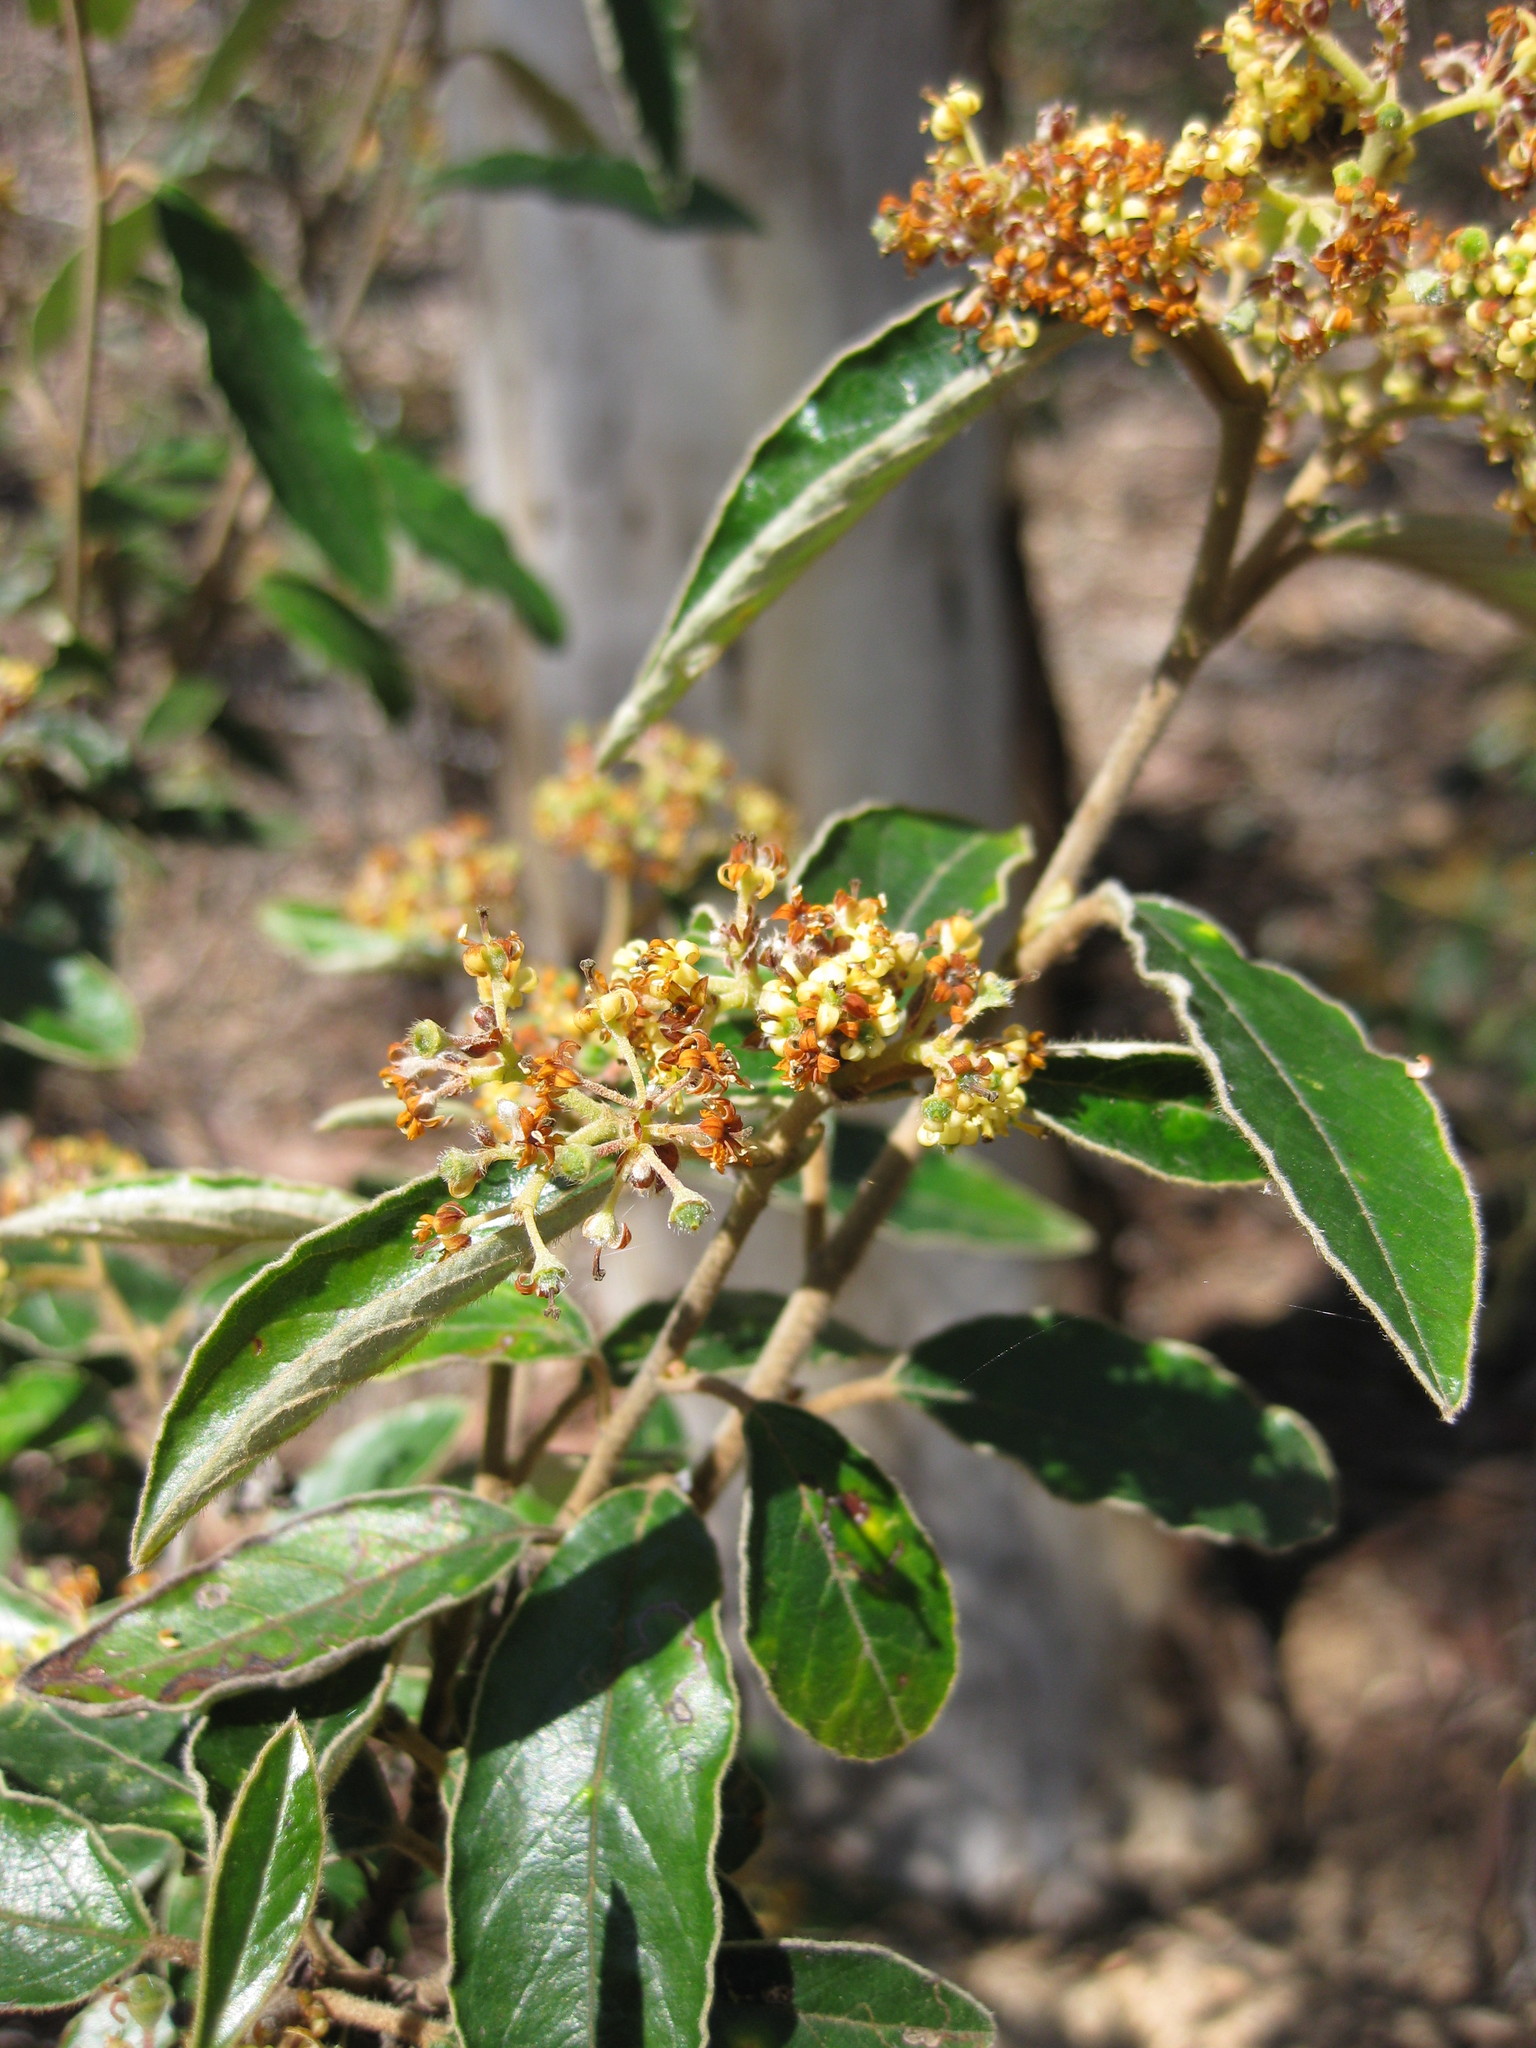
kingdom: Plantae
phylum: Tracheophyta
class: Magnoliopsida
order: Rosales
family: Rhamnaceae
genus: Pomaderris
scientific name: Pomaderris intermedia
